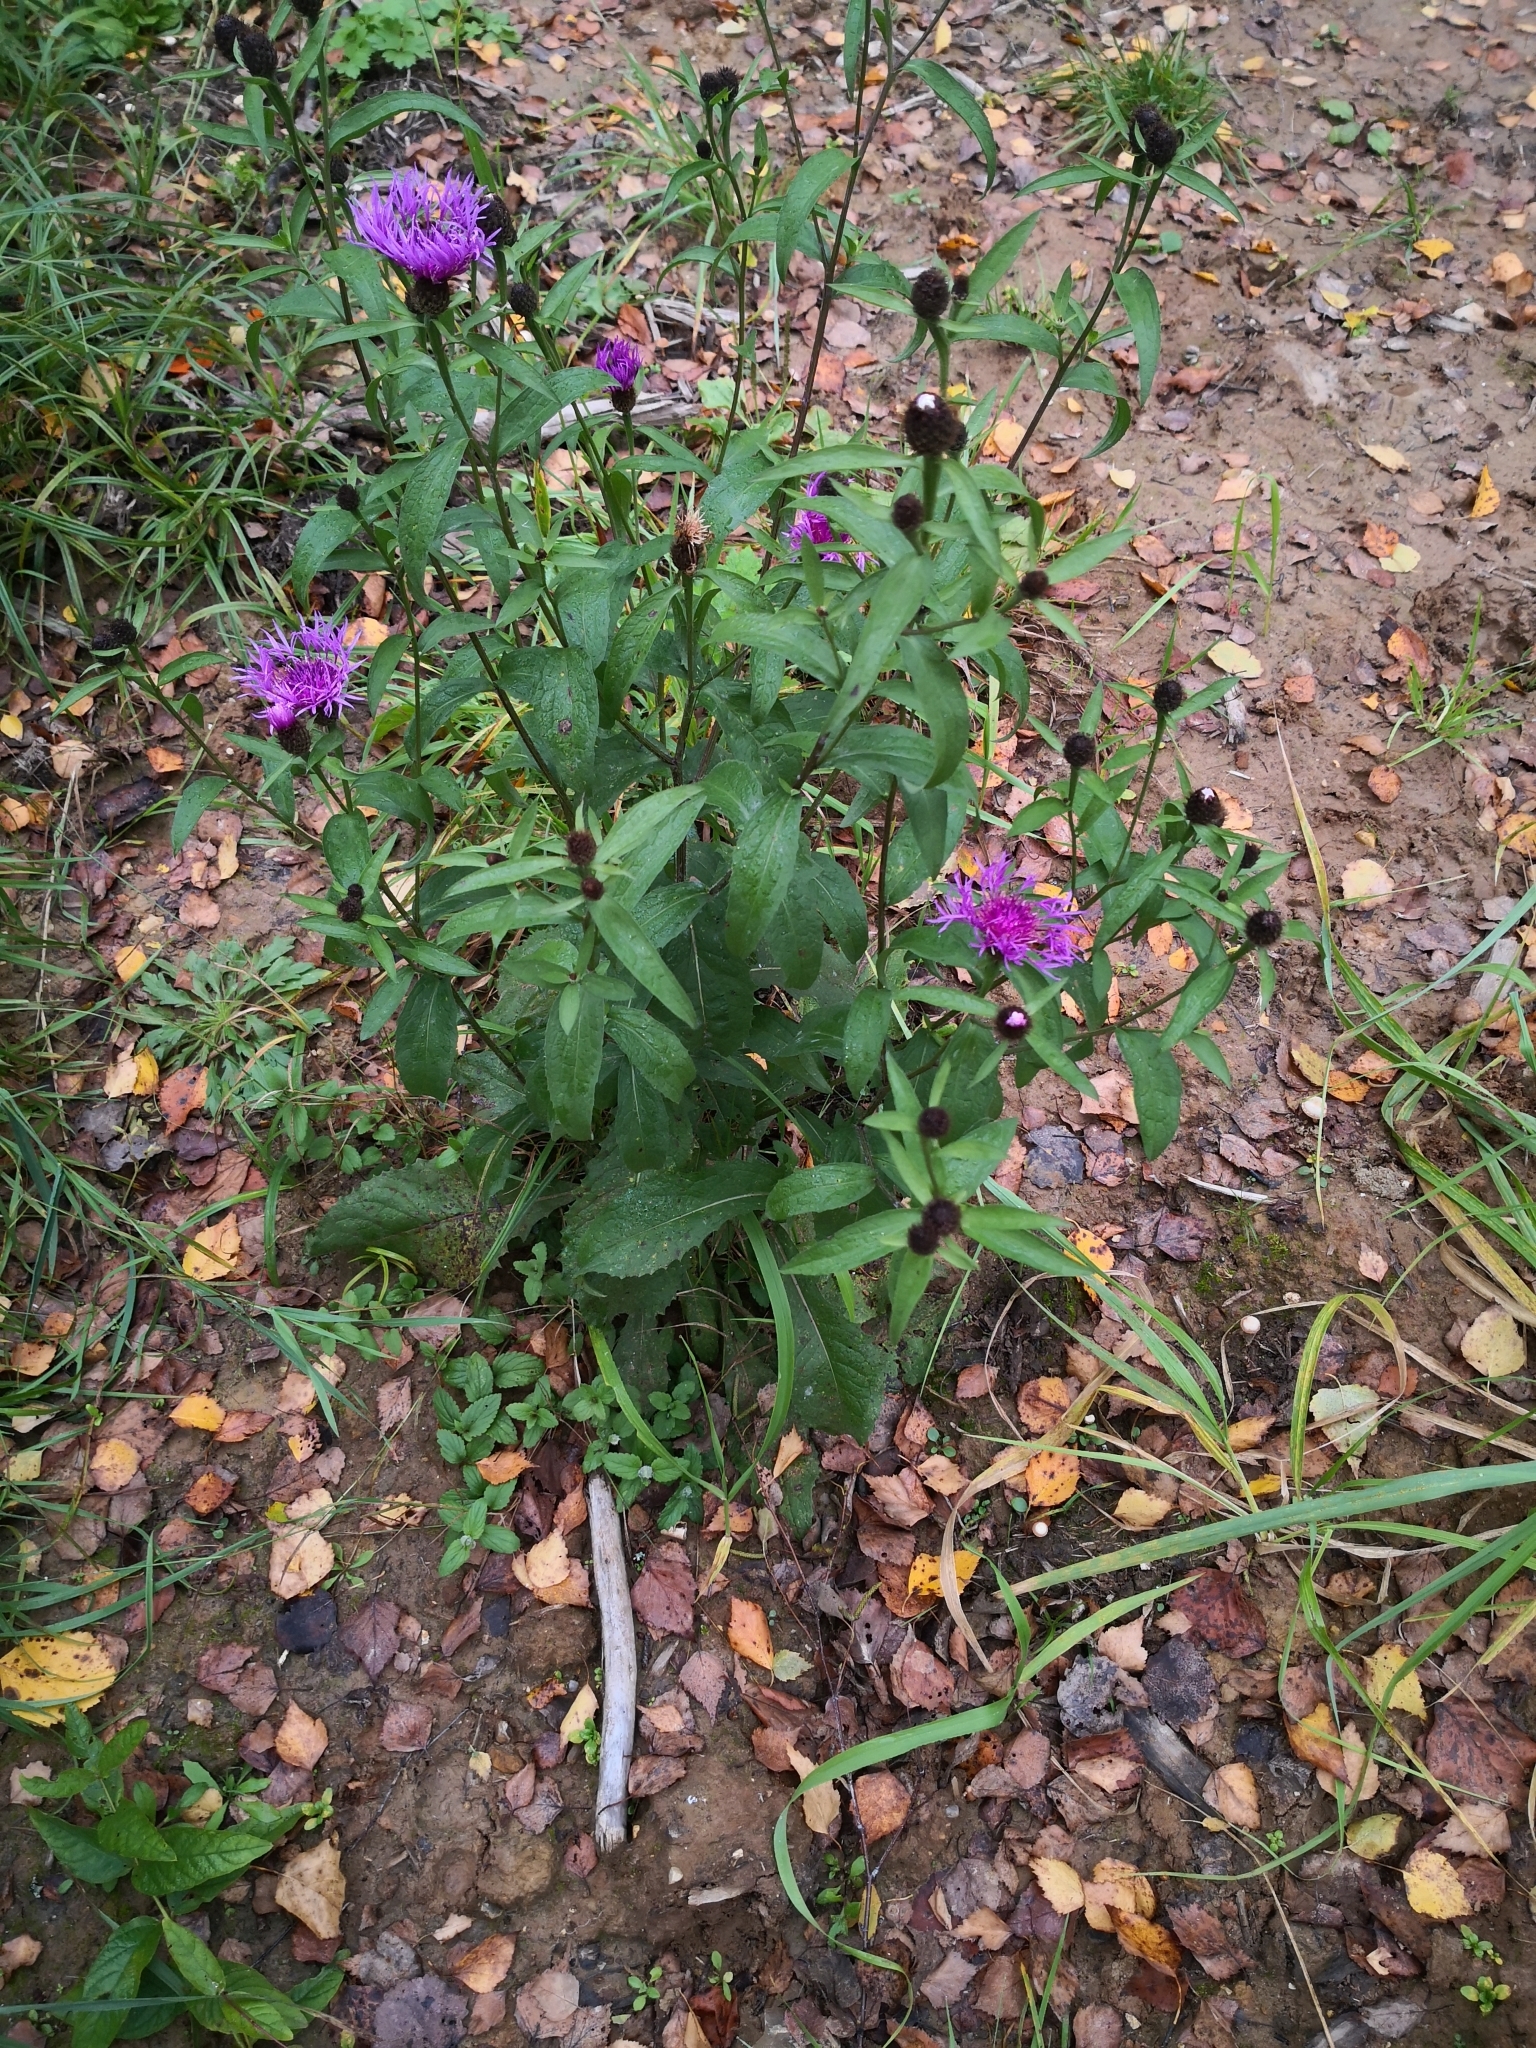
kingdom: Plantae
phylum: Tracheophyta
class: Magnoliopsida
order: Asterales
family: Asteraceae
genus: Centaurea
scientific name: Centaurea phrygia
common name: Wig knapweed
